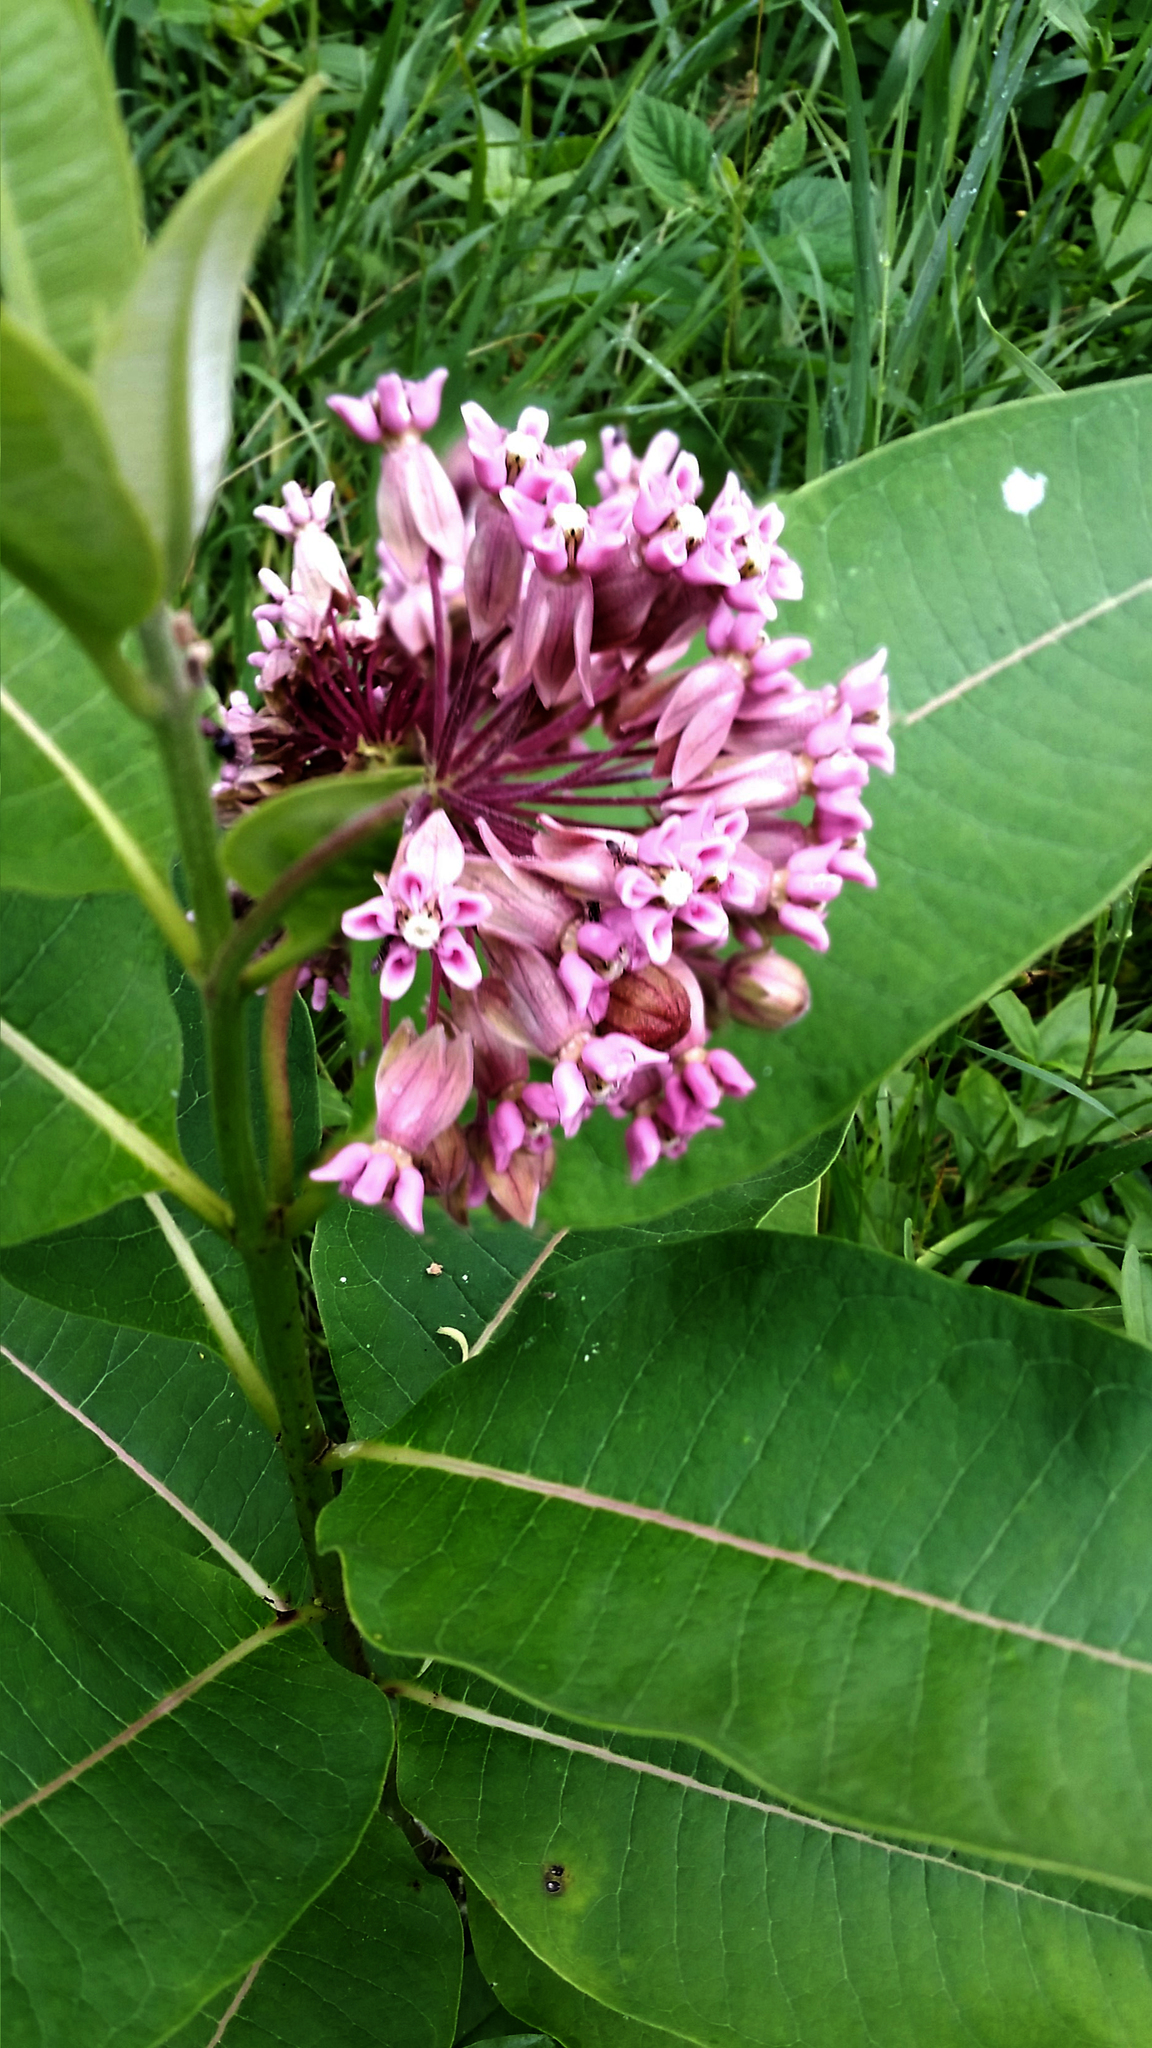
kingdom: Plantae
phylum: Tracheophyta
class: Magnoliopsida
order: Gentianales
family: Apocynaceae
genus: Asclepias
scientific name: Asclepias syriaca
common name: Common milkweed
